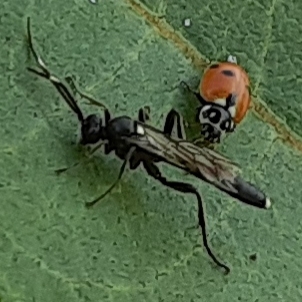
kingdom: Animalia
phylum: Arthropoda
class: Insecta
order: Coleoptera
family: Coccinellidae
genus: Hippodamia
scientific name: Hippodamia variegata
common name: Ladybird beetle
